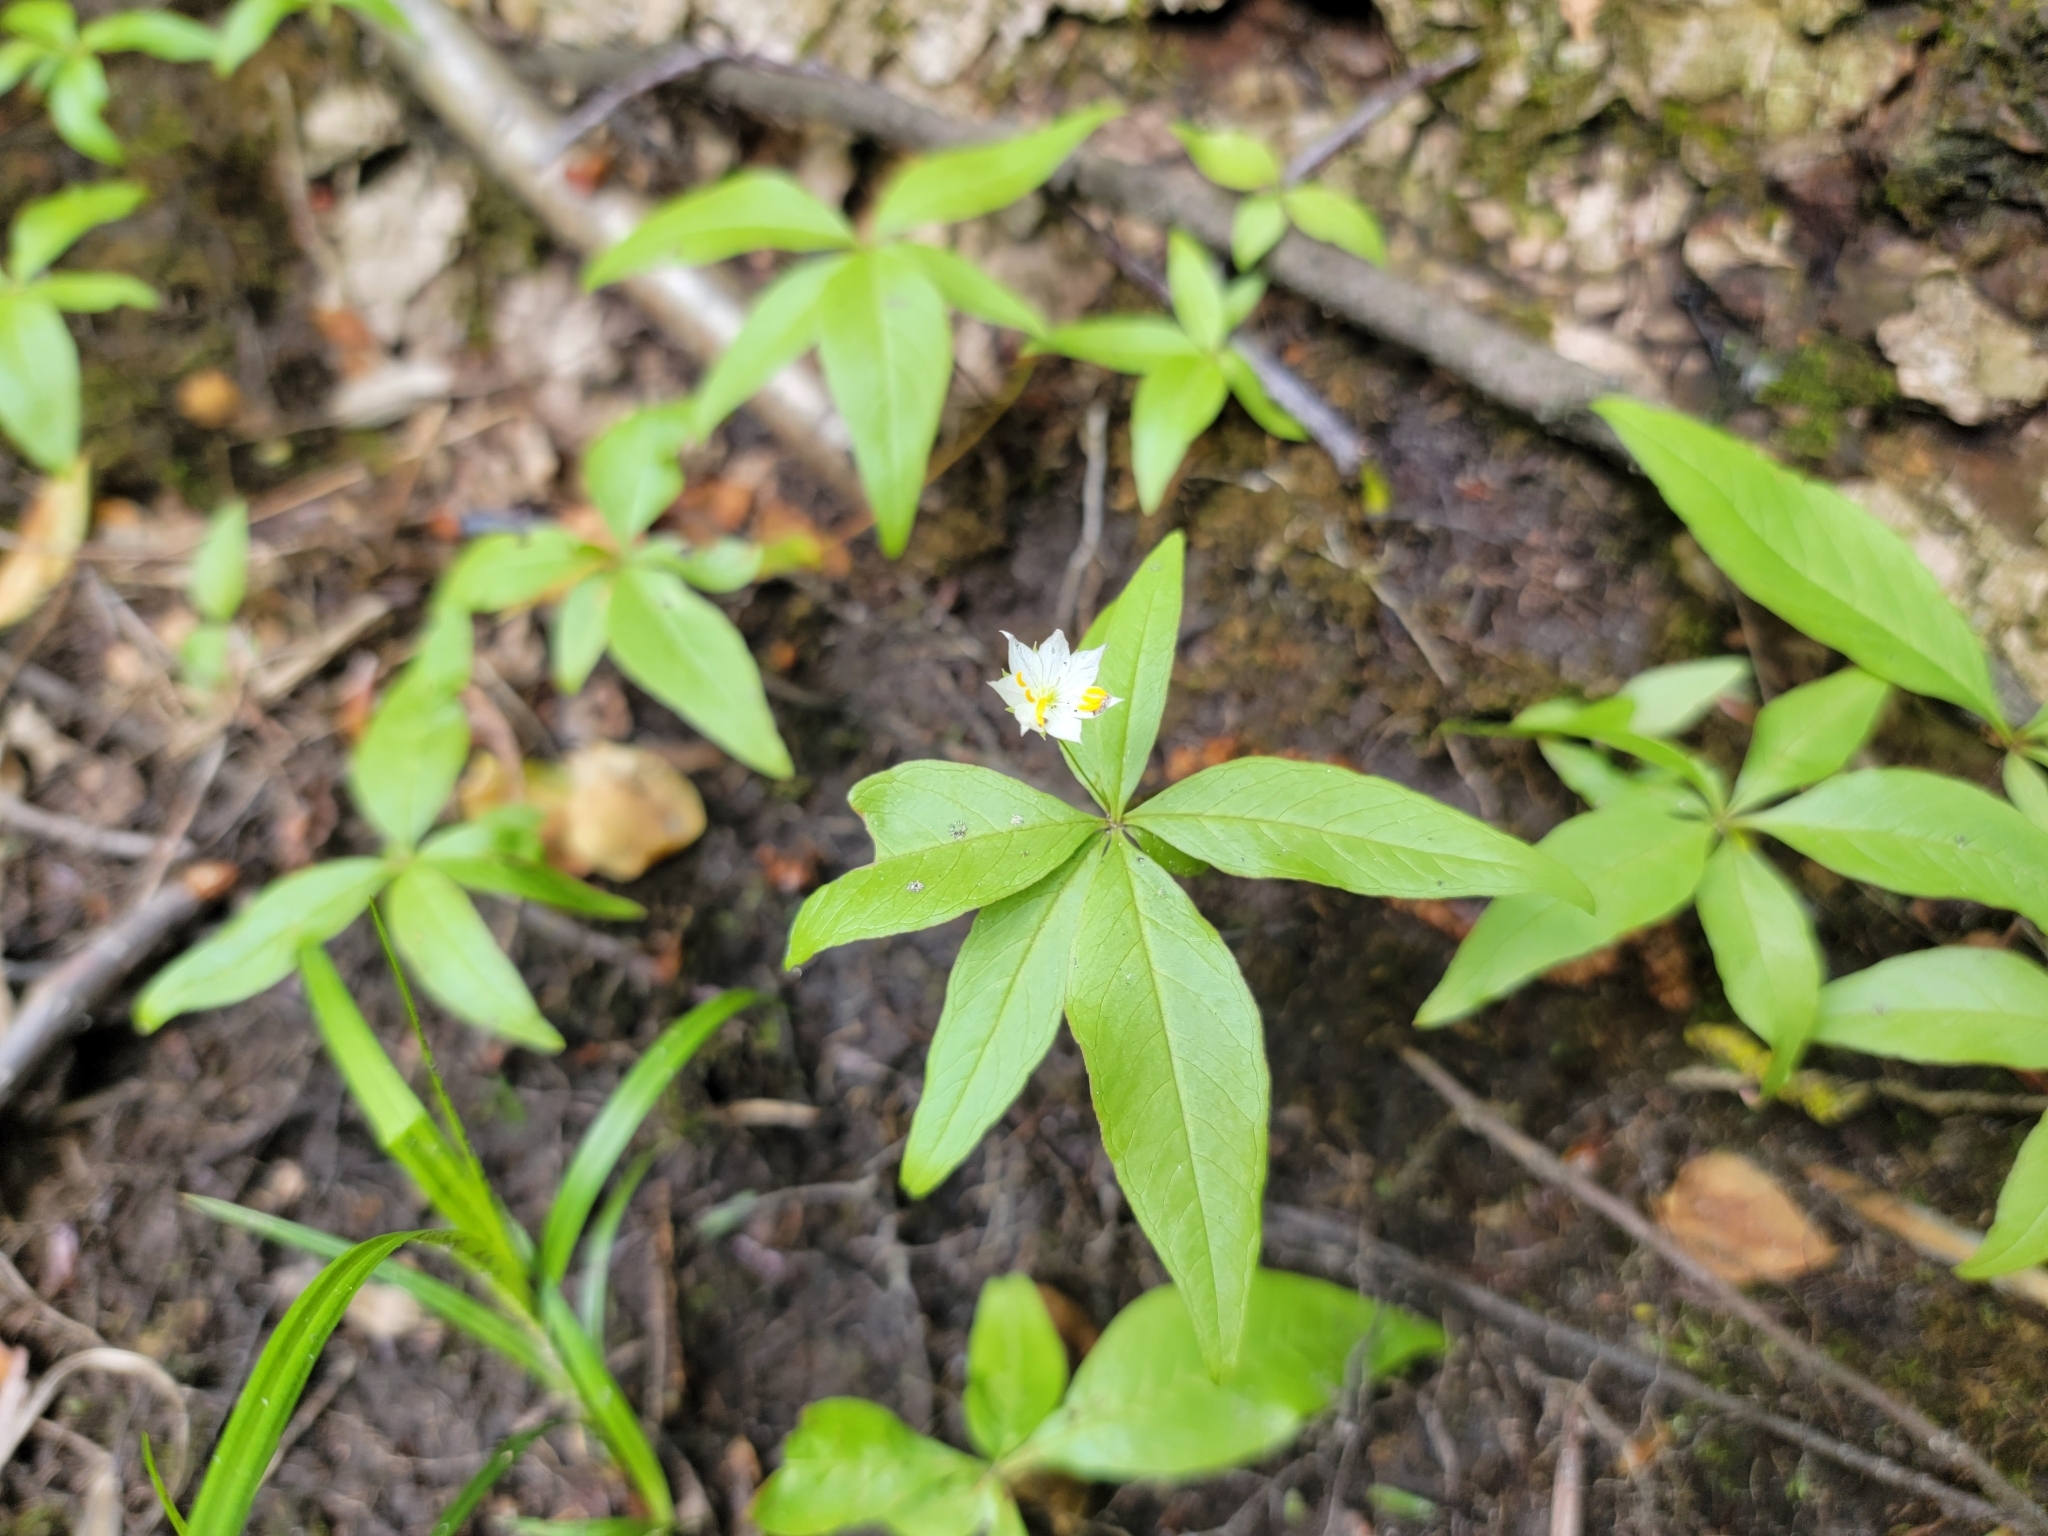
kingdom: Plantae
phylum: Tracheophyta
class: Magnoliopsida
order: Ericales
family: Primulaceae
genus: Lysimachia
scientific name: Lysimachia borealis
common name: American starflower
